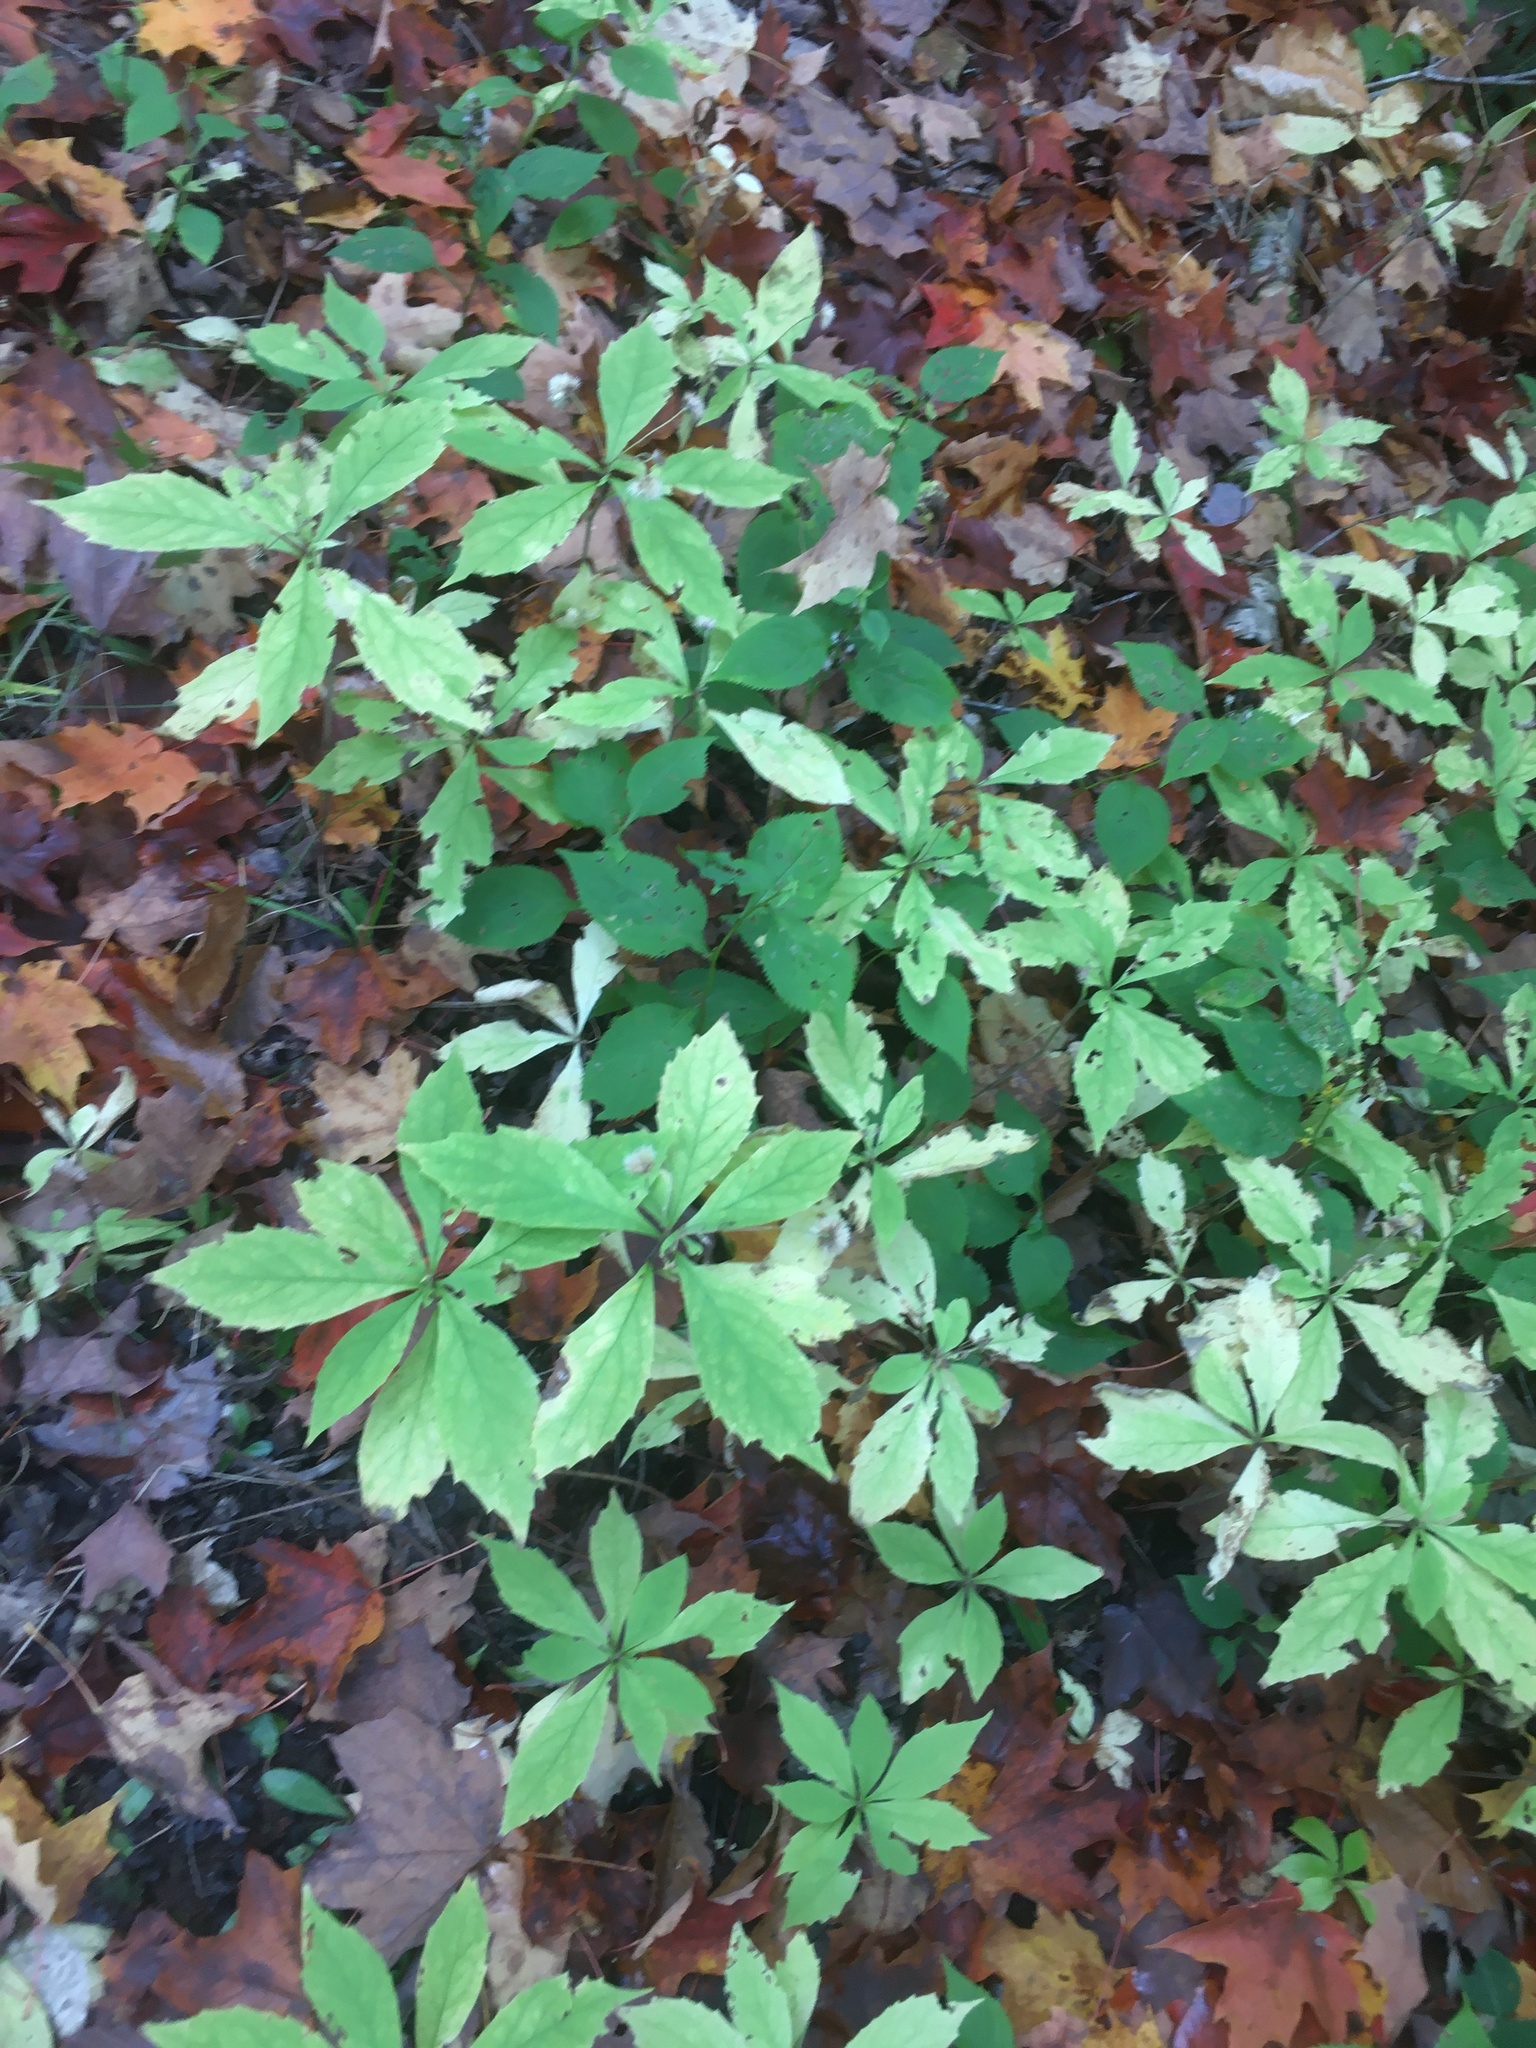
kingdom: Plantae
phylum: Tracheophyta
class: Magnoliopsida
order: Asterales
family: Asteraceae
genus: Oclemena
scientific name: Oclemena acuminata
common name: Mountain aster
